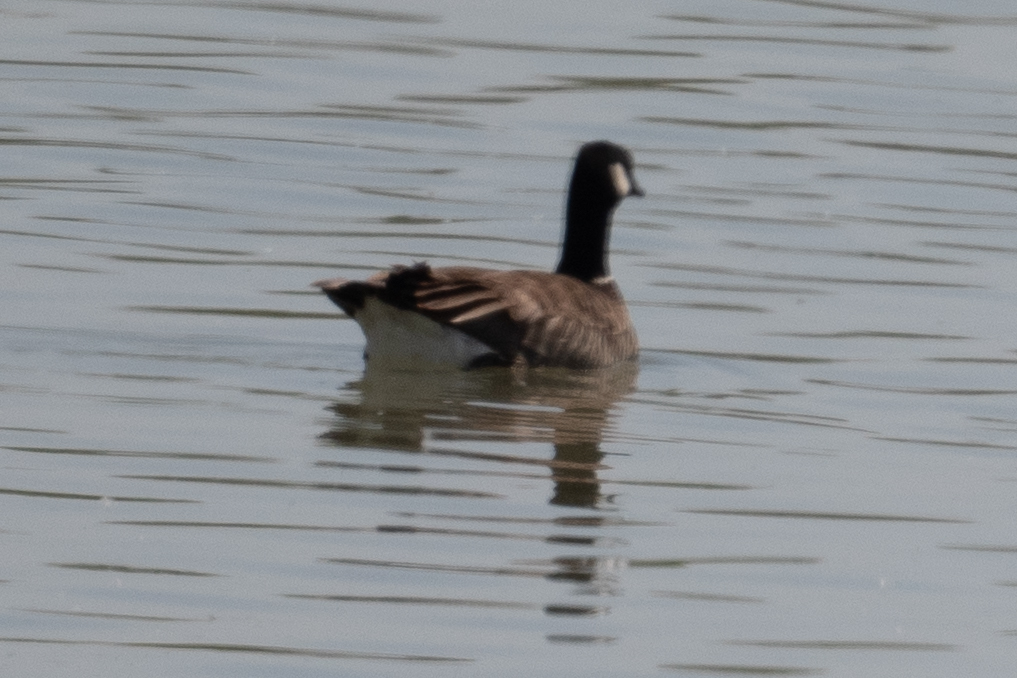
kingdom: Animalia
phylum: Chordata
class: Aves
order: Anseriformes
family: Anatidae
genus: Branta
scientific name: Branta hutchinsii
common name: Cackling goose
